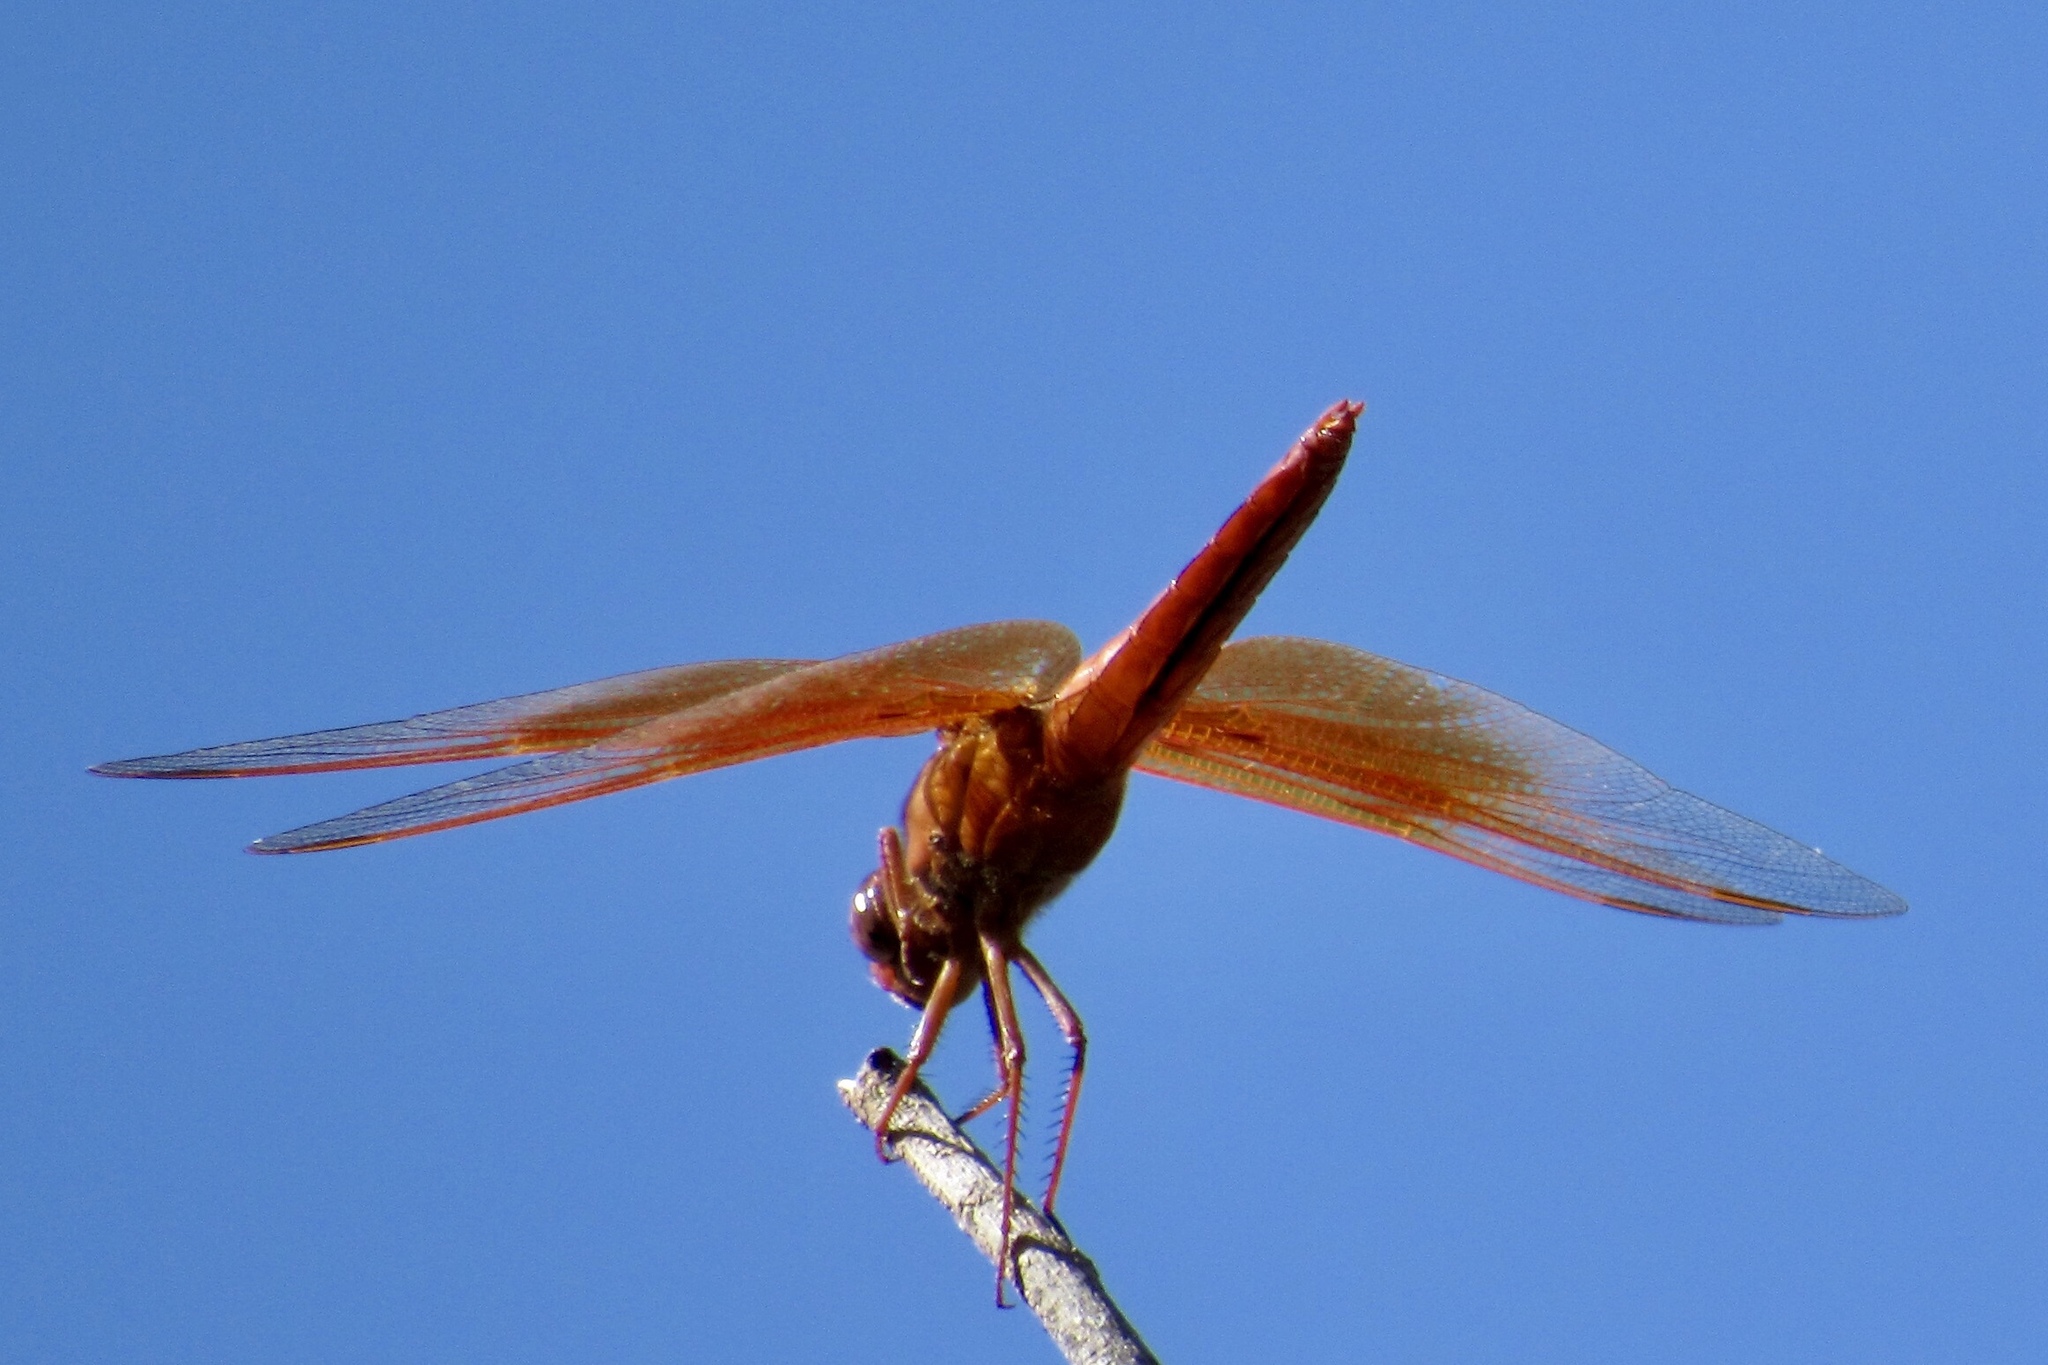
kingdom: Animalia
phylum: Arthropoda
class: Insecta
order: Odonata
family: Libellulidae
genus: Libellula
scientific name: Libellula saturata
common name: Flame skimmer
